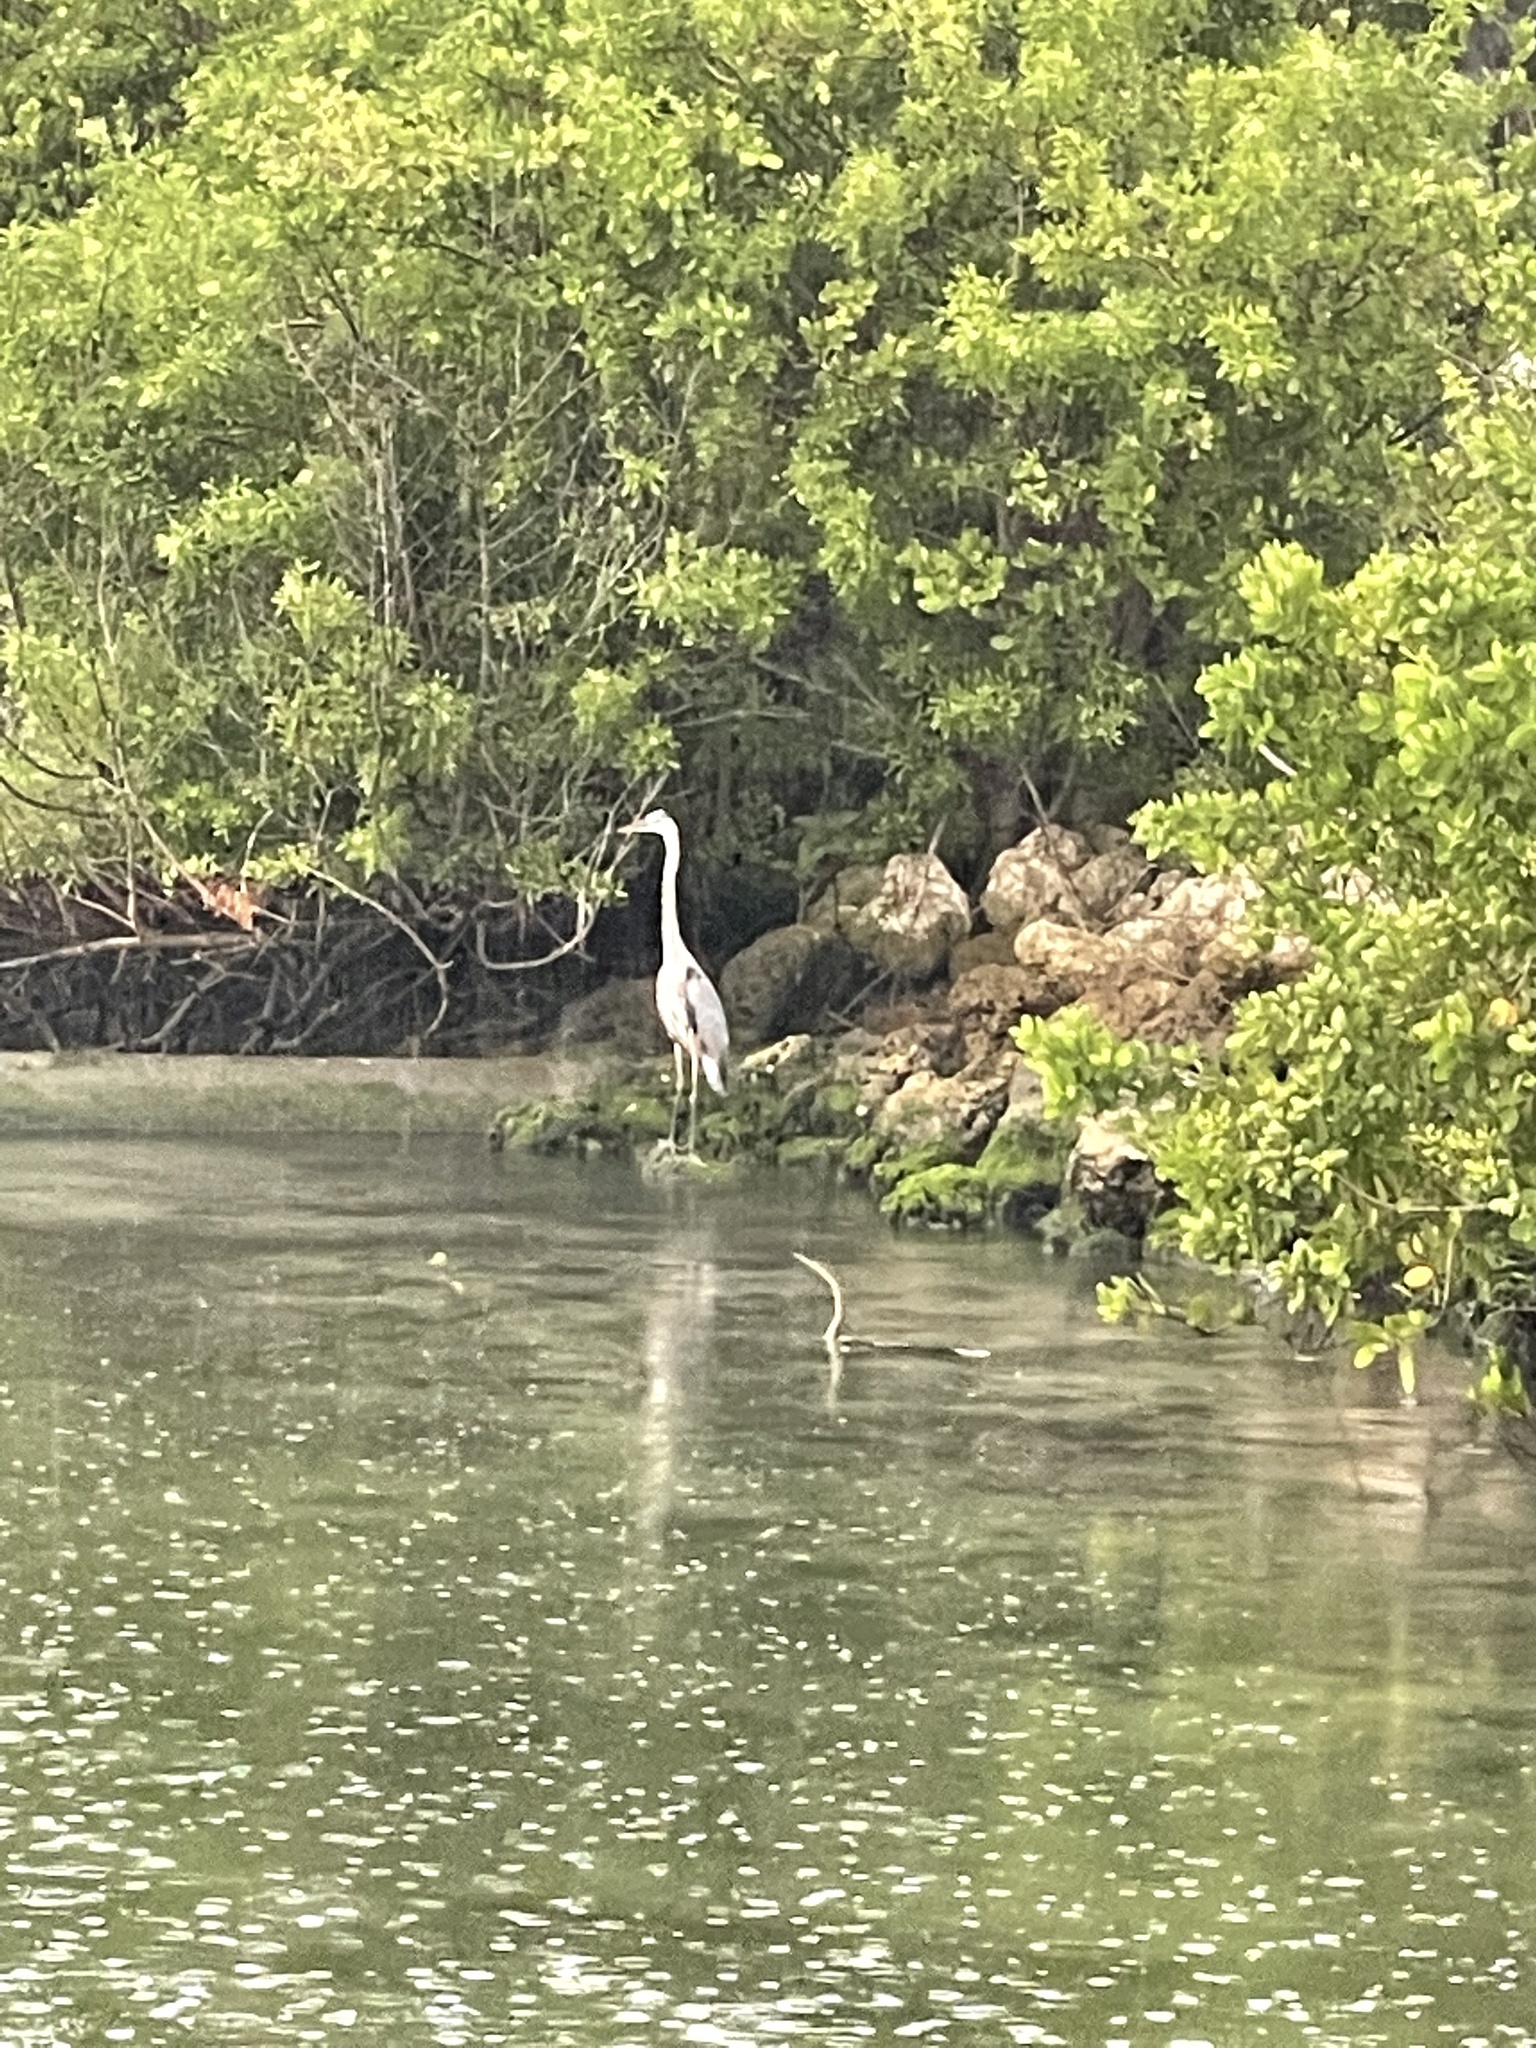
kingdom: Animalia
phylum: Chordata
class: Aves
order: Pelecaniformes
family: Ardeidae
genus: Ardea
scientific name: Ardea herodias
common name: Great blue heron
